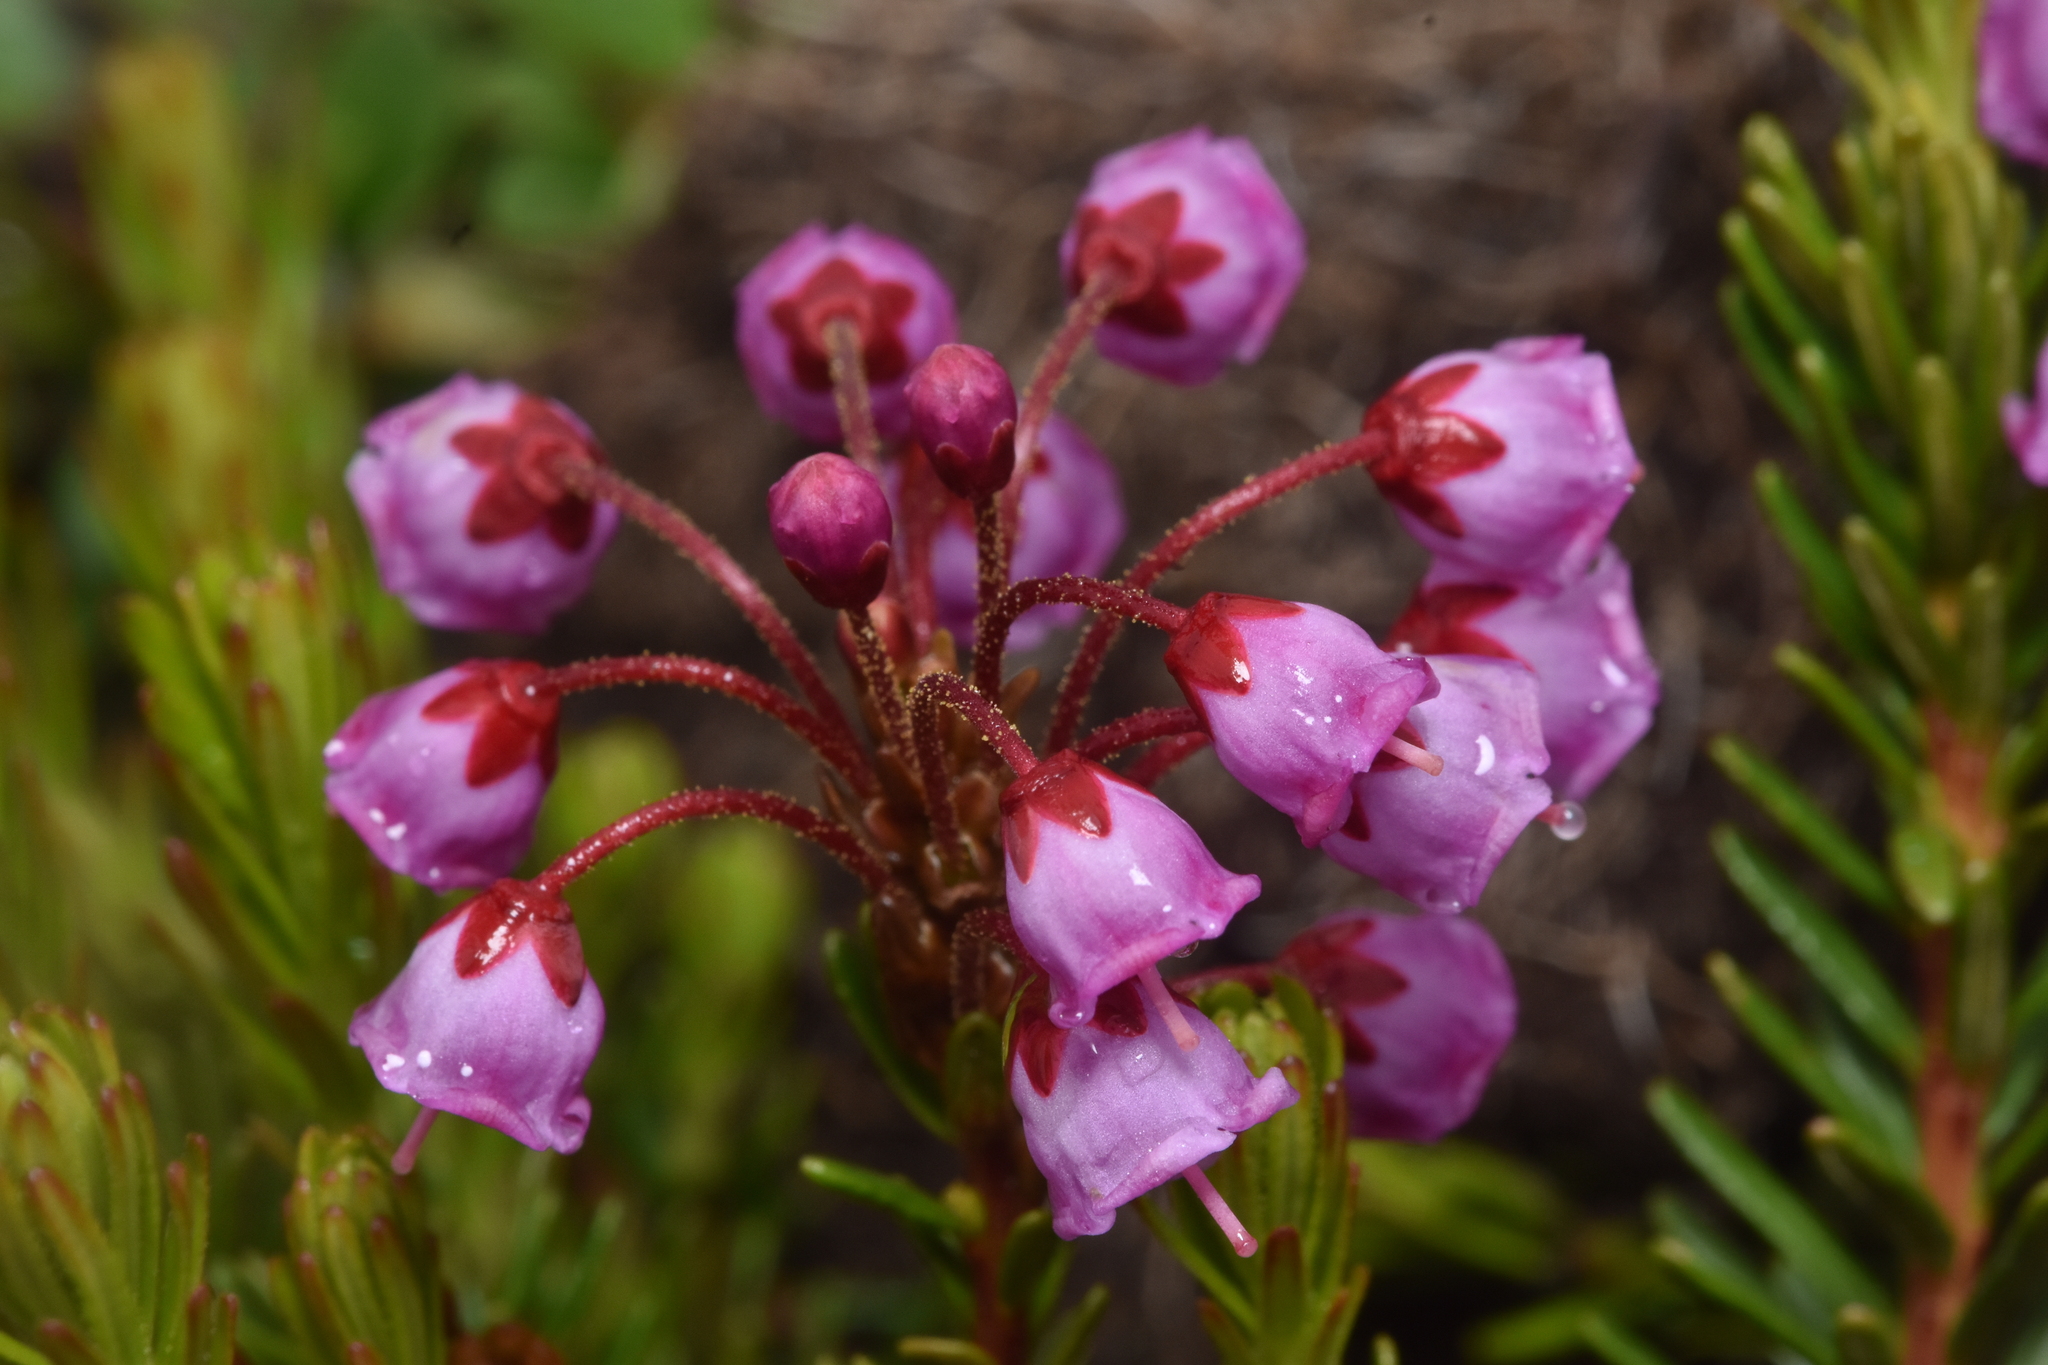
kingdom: Plantae
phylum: Tracheophyta
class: Magnoliopsida
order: Ericales
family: Ericaceae
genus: Phyllodoce
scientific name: Phyllodoce empetriformis
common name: Pink mountain heather
